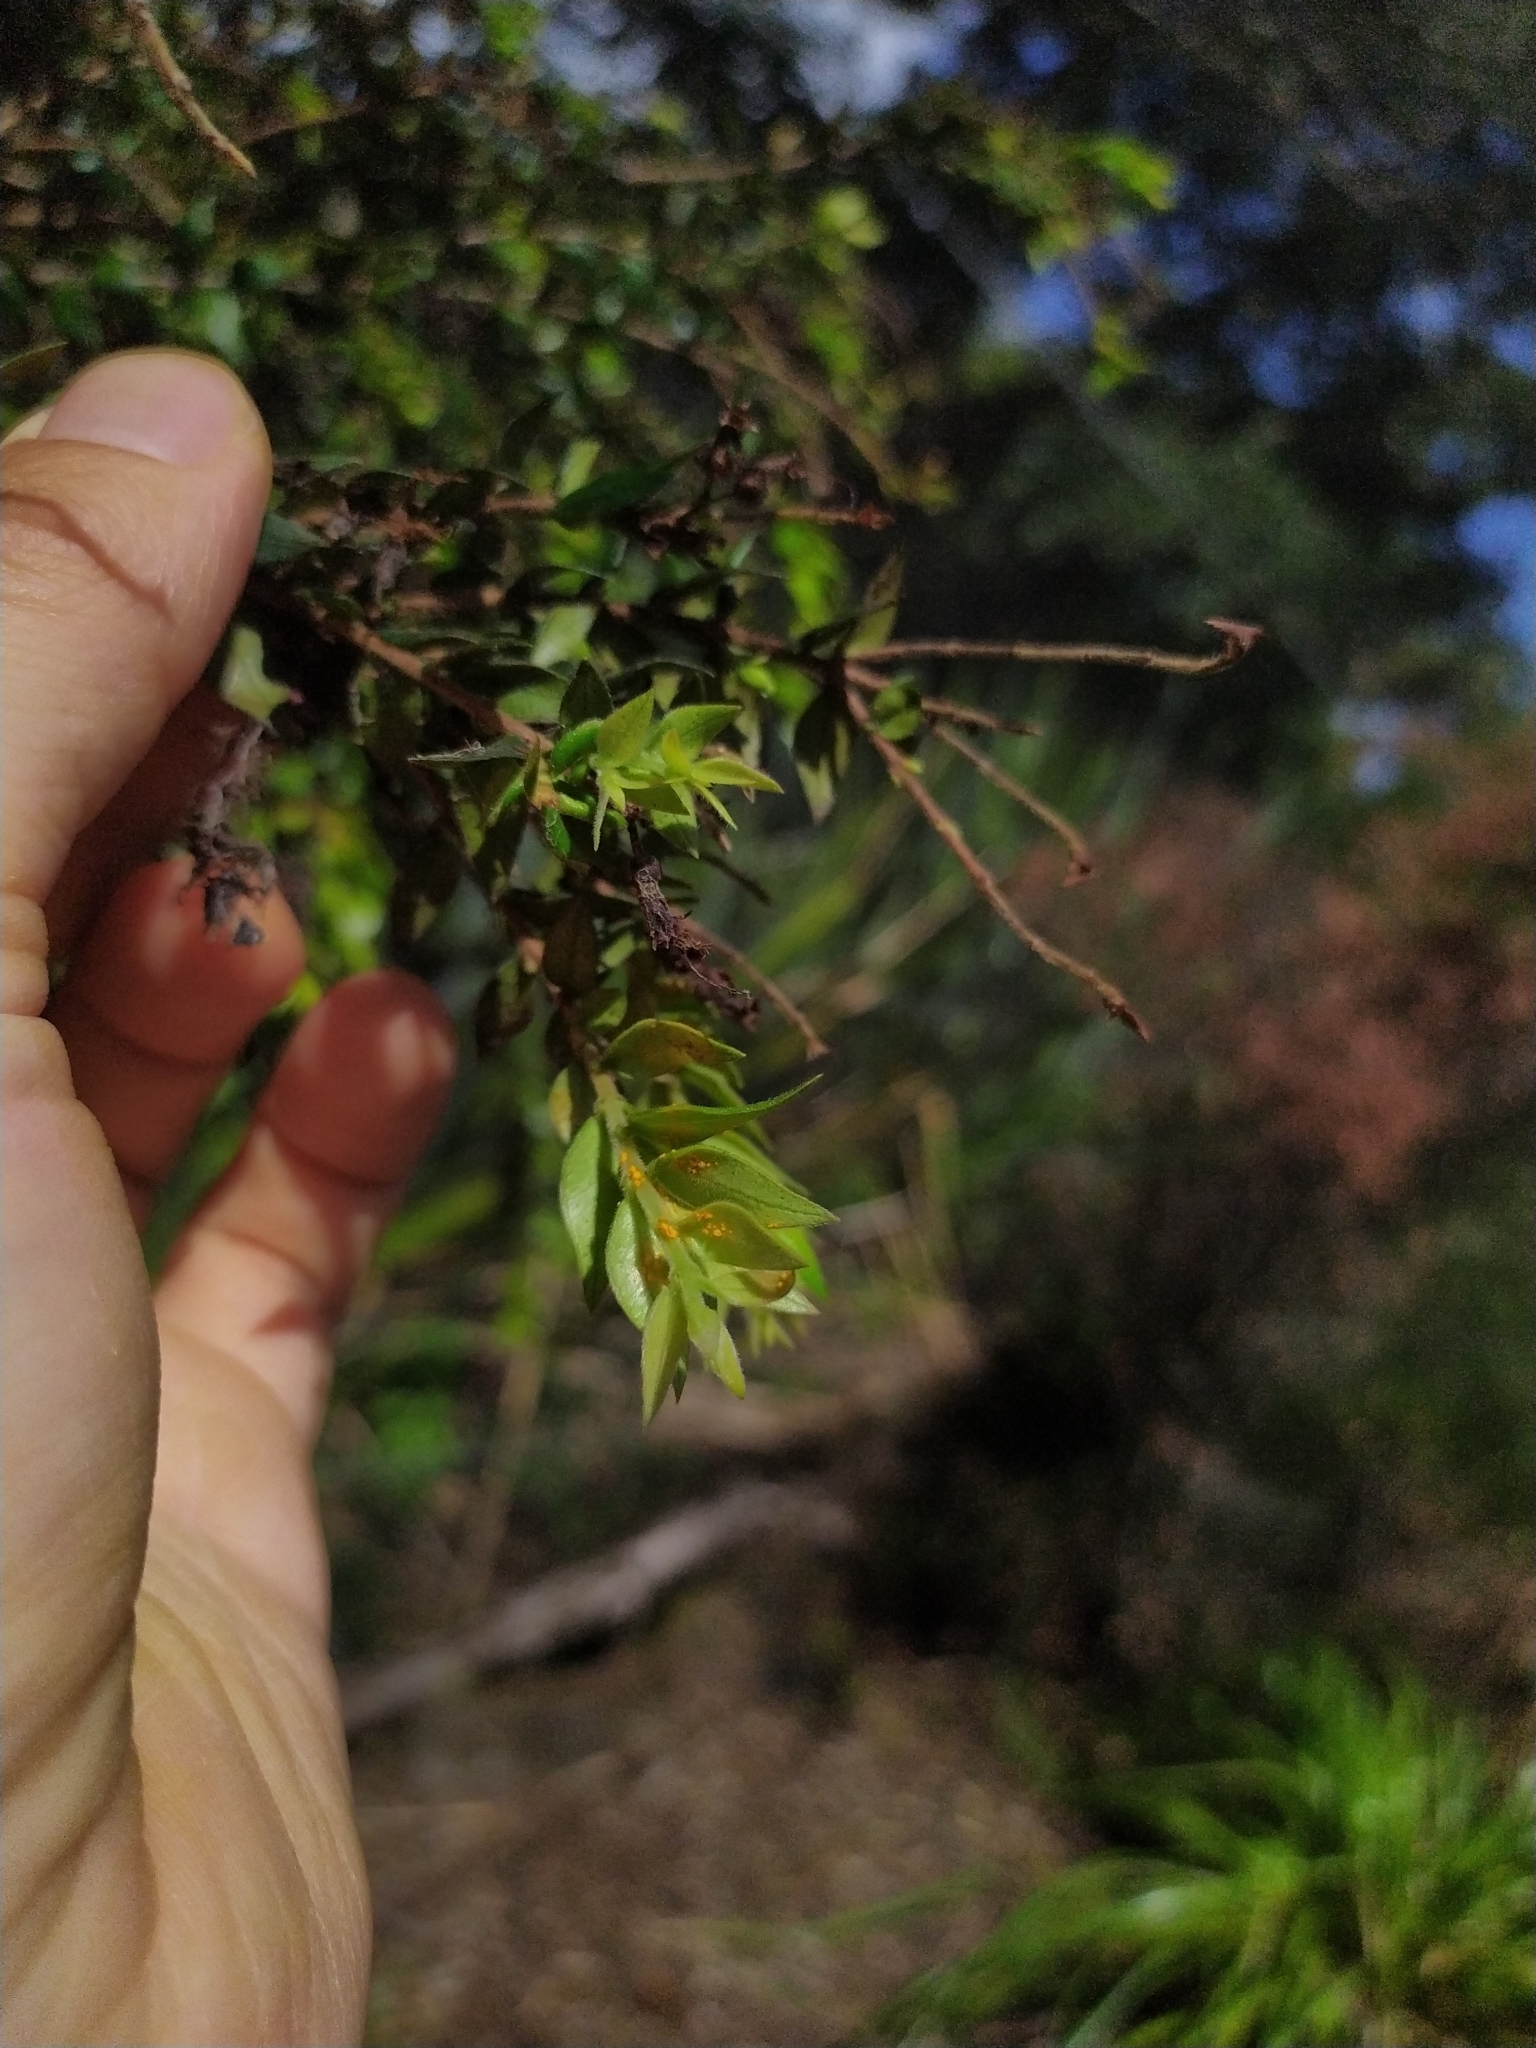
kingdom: Fungi
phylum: Basidiomycota
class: Pucciniomycetes
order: Pucciniales
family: Sphaerophragmiaceae
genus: Austropuccinia
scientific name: Austropuccinia psidii
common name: Myrtle rust
